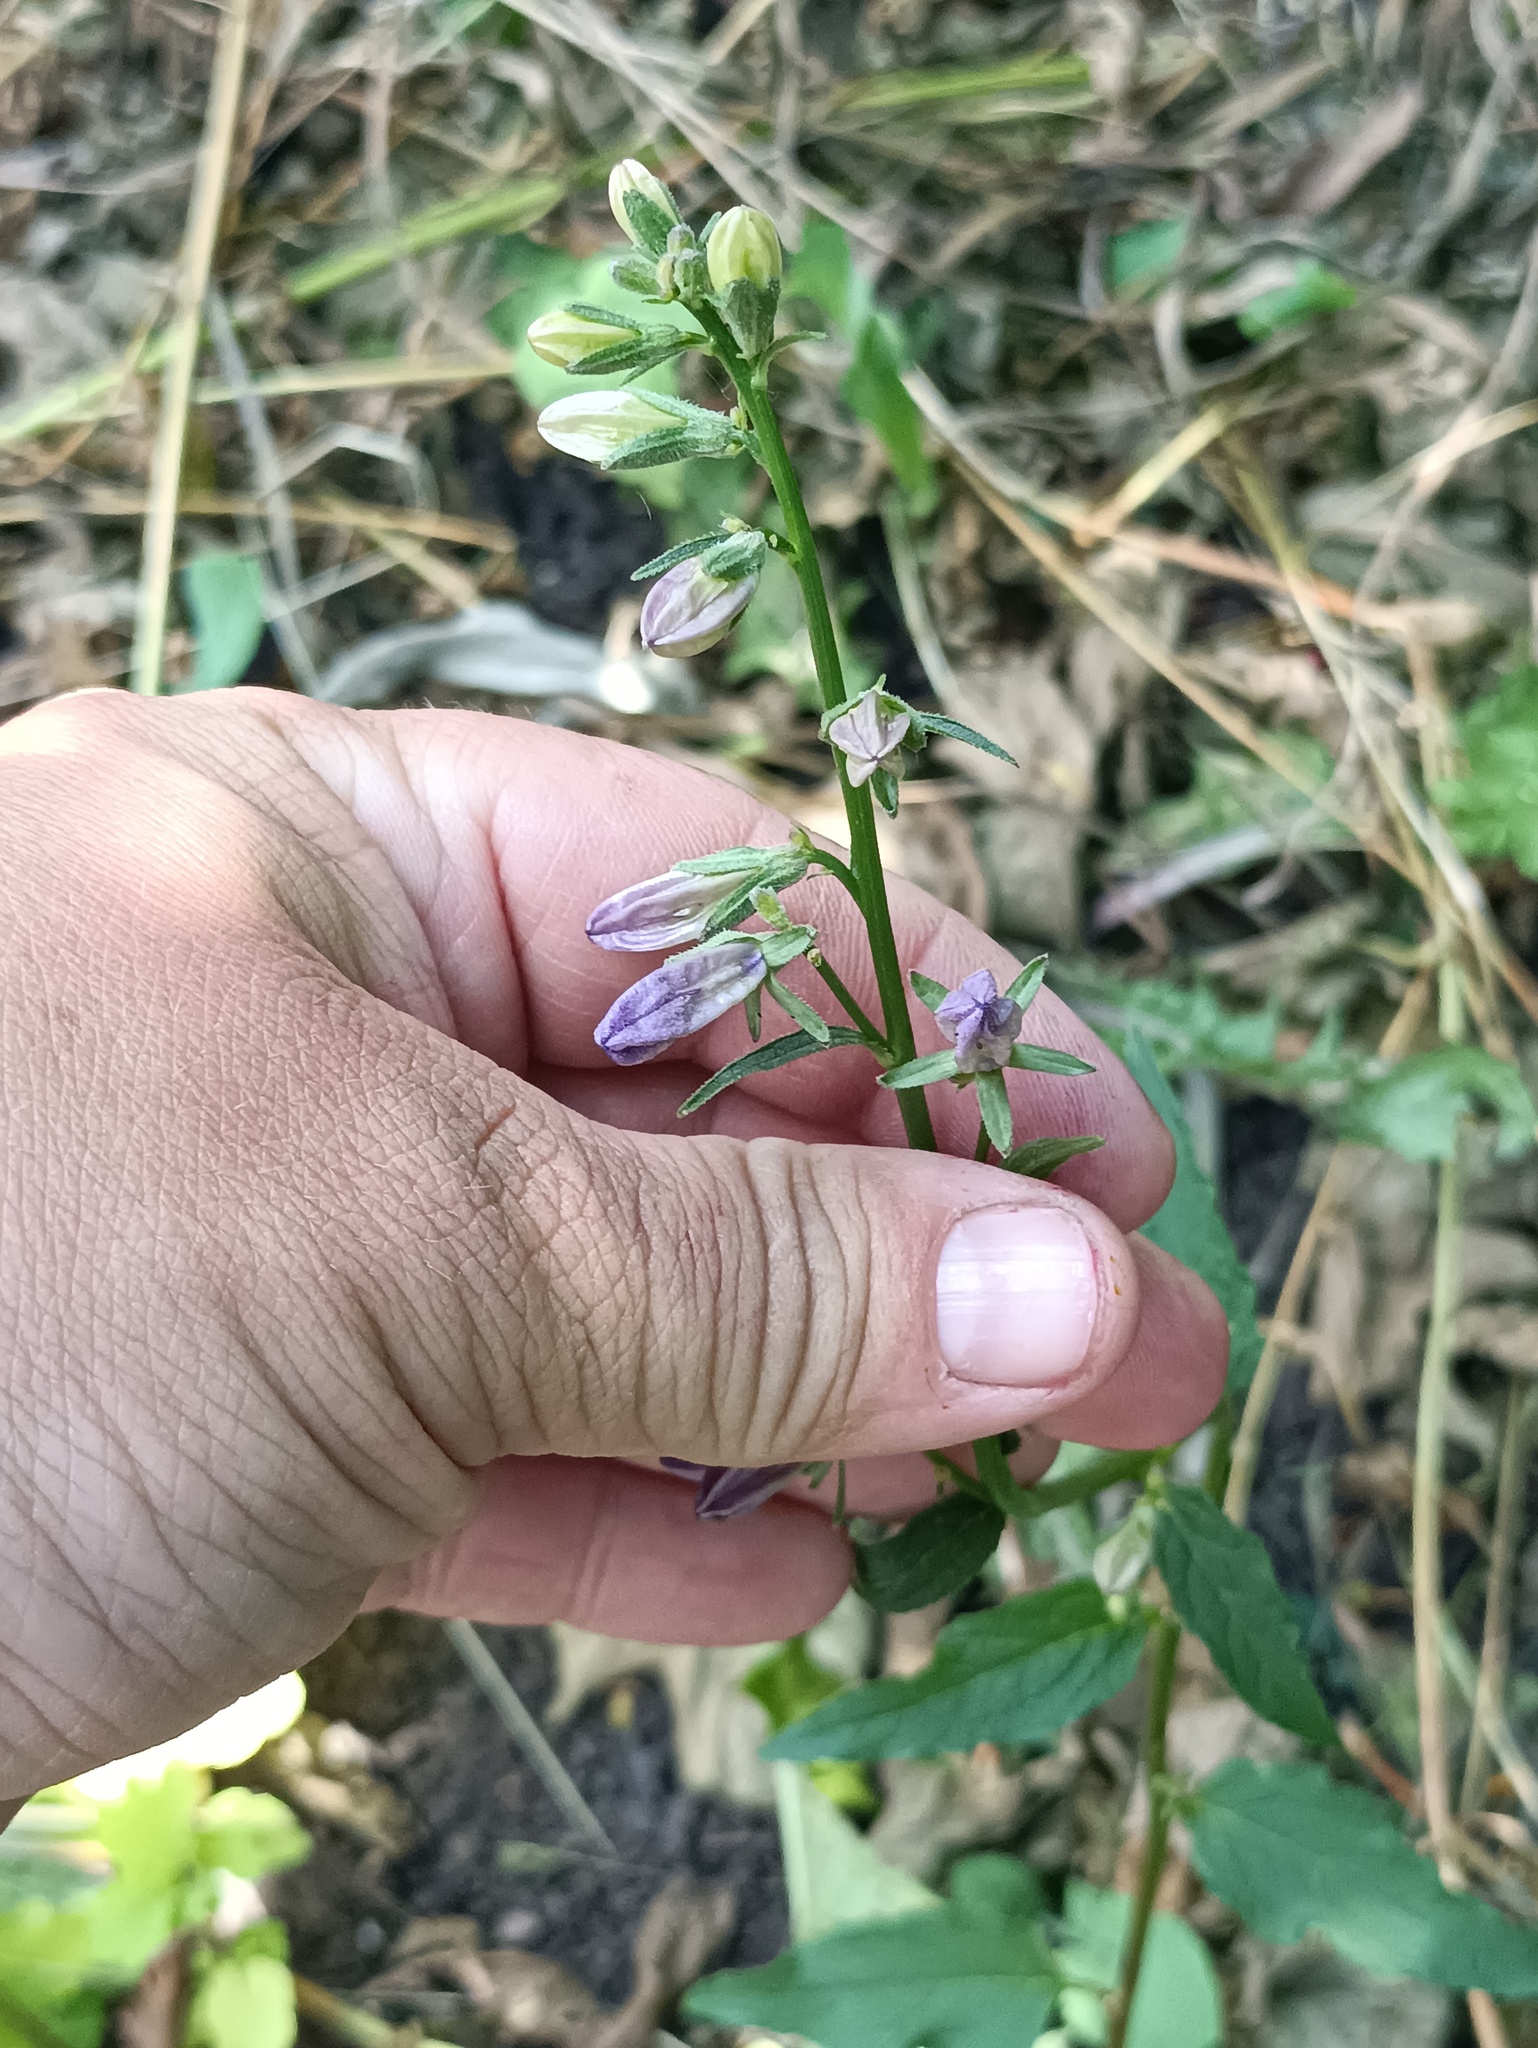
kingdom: Plantae
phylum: Tracheophyta
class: Magnoliopsida
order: Asterales
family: Campanulaceae
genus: Campanula
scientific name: Campanula rapunculoides
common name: Creeping bellflower
